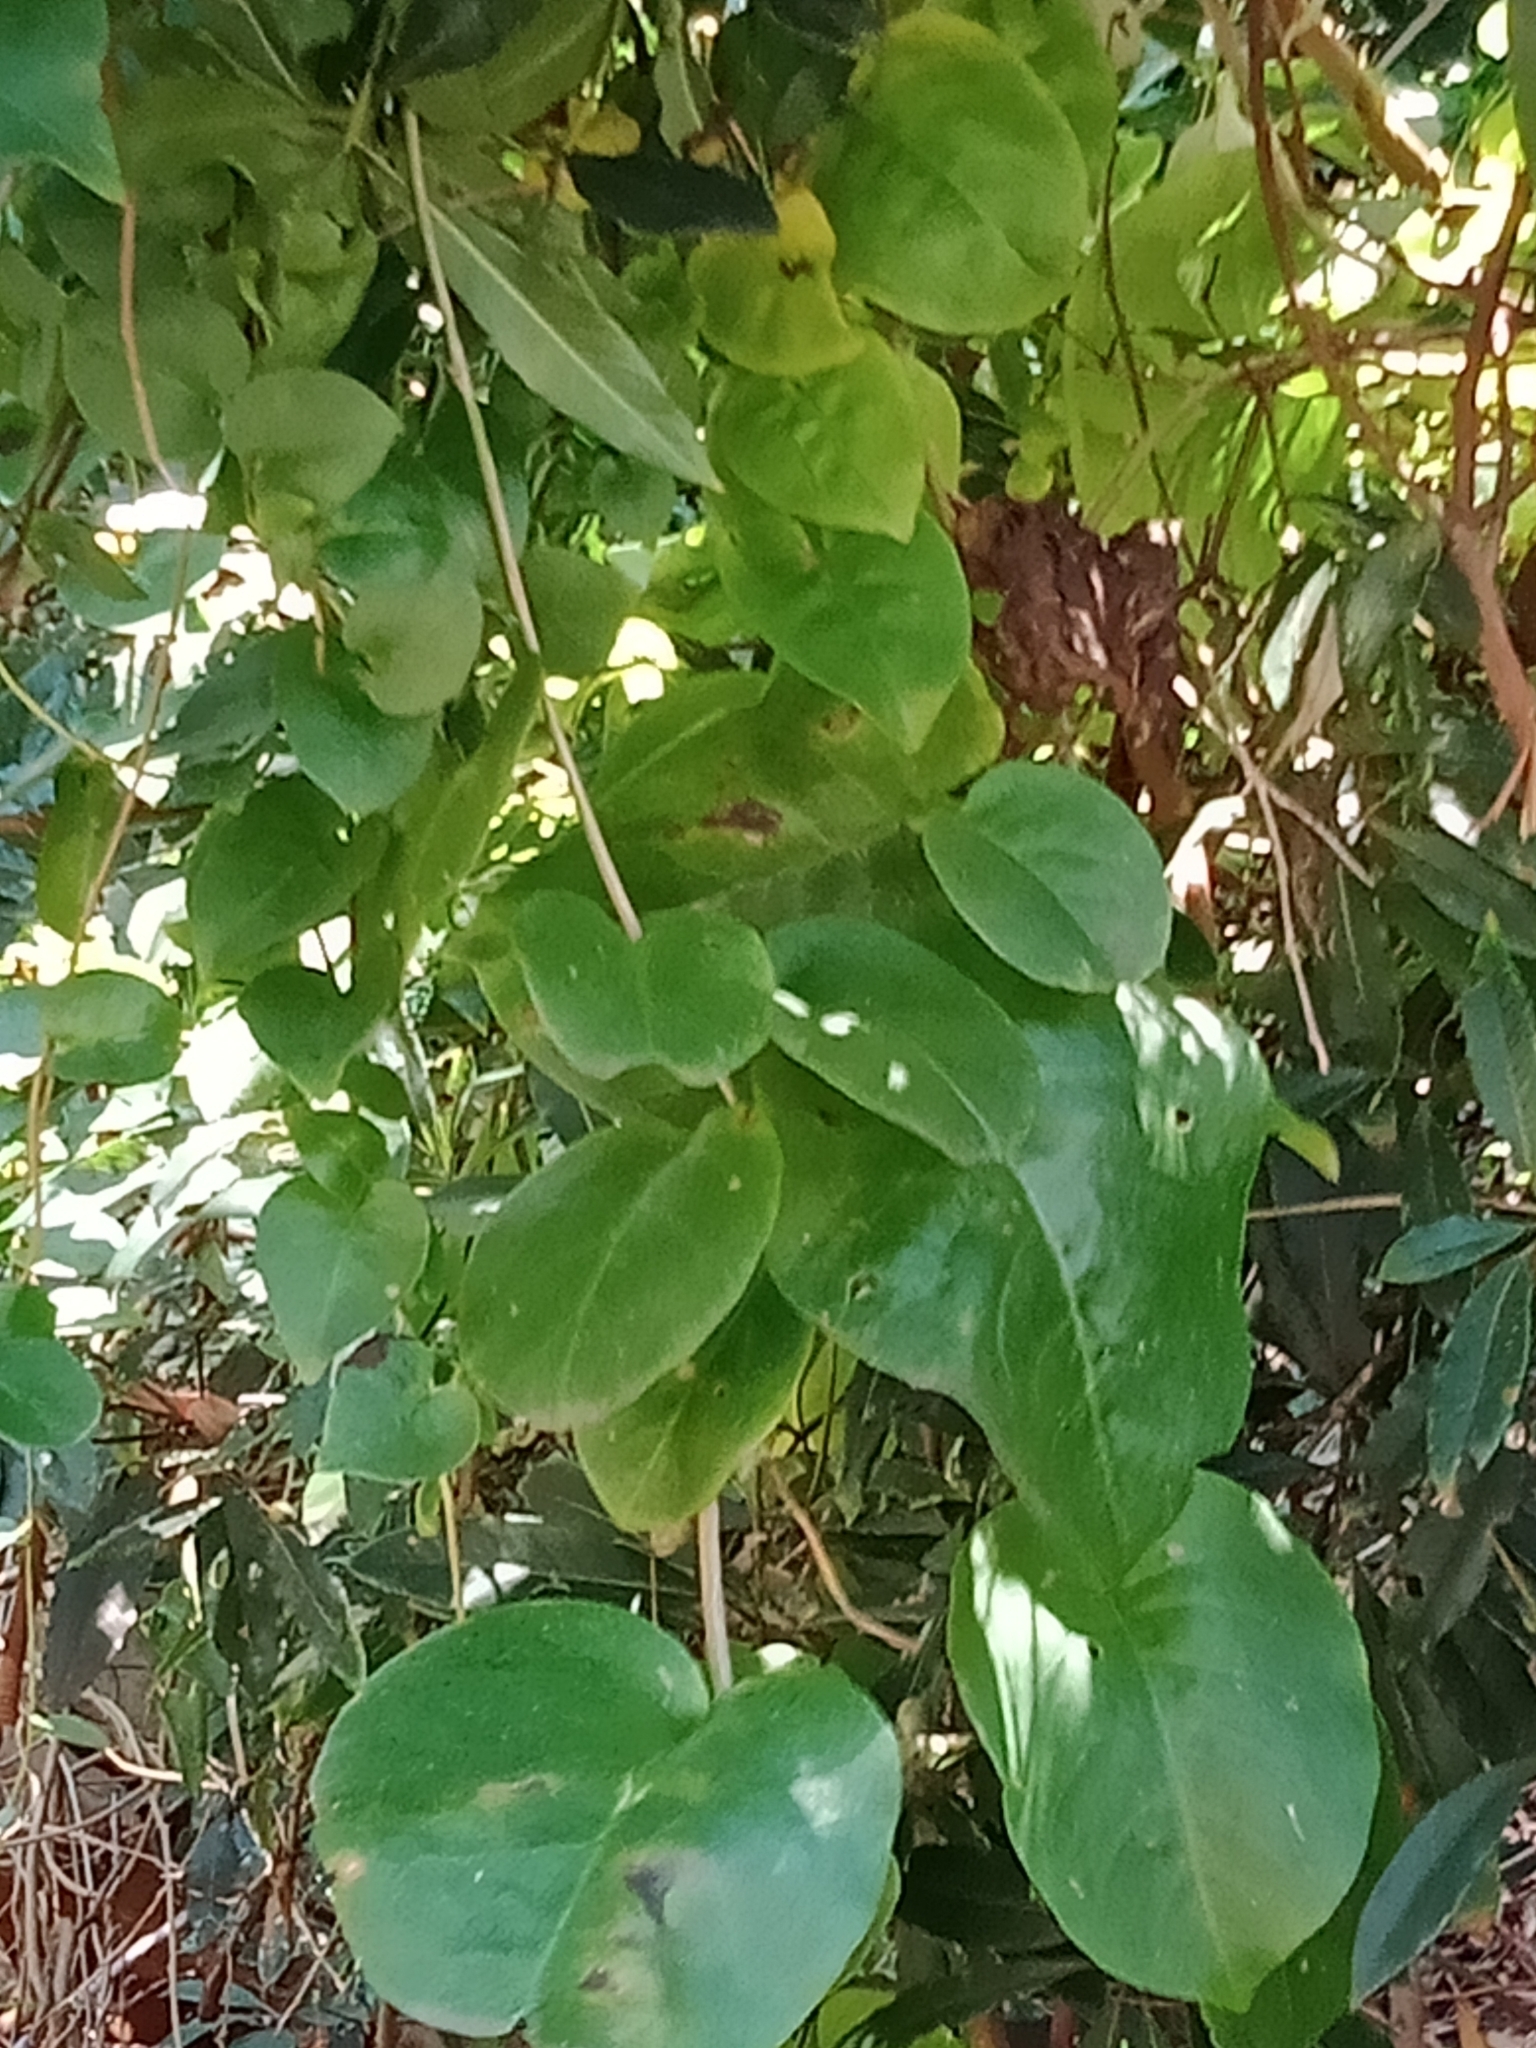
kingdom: Plantae
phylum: Tracheophyta
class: Magnoliopsida
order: Caryophyllales
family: Basellaceae
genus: Anredera
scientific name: Anredera cordifolia
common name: Heartleaf madeiravine
